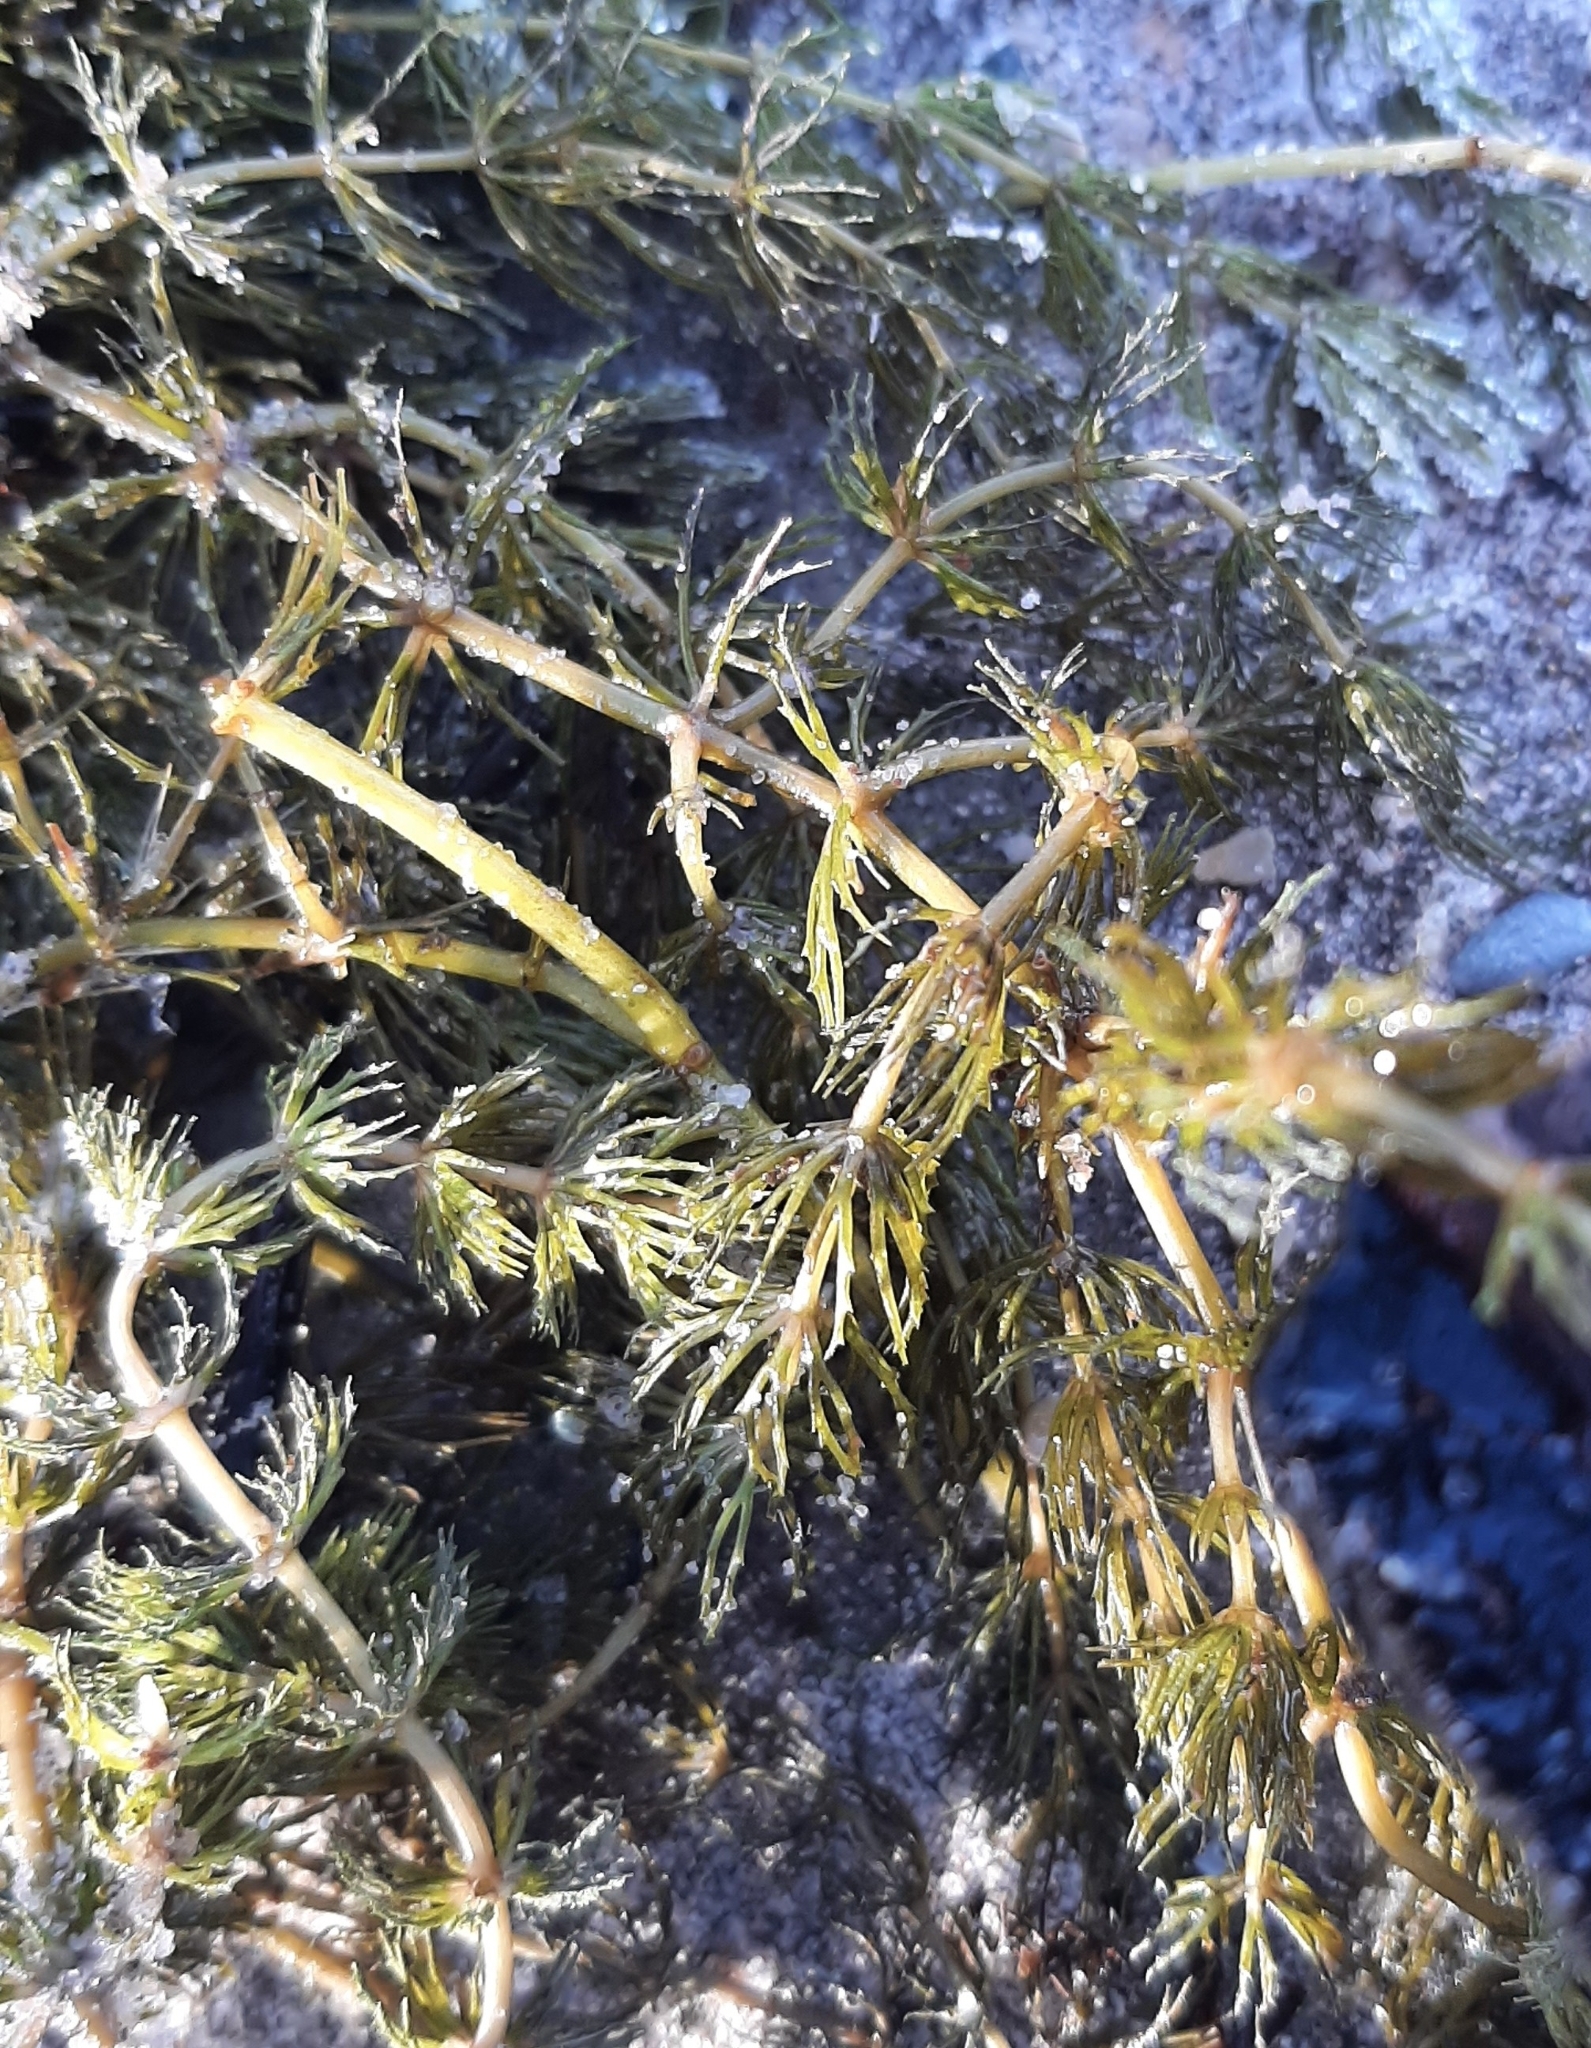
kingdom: Plantae
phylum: Tracheophyta
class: Magnoliopsida
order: Ceratophyllales
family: Ceratophyllaceae
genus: Ceratophyllum
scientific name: Ceratophyllum demersum
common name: Rigid hornwort
